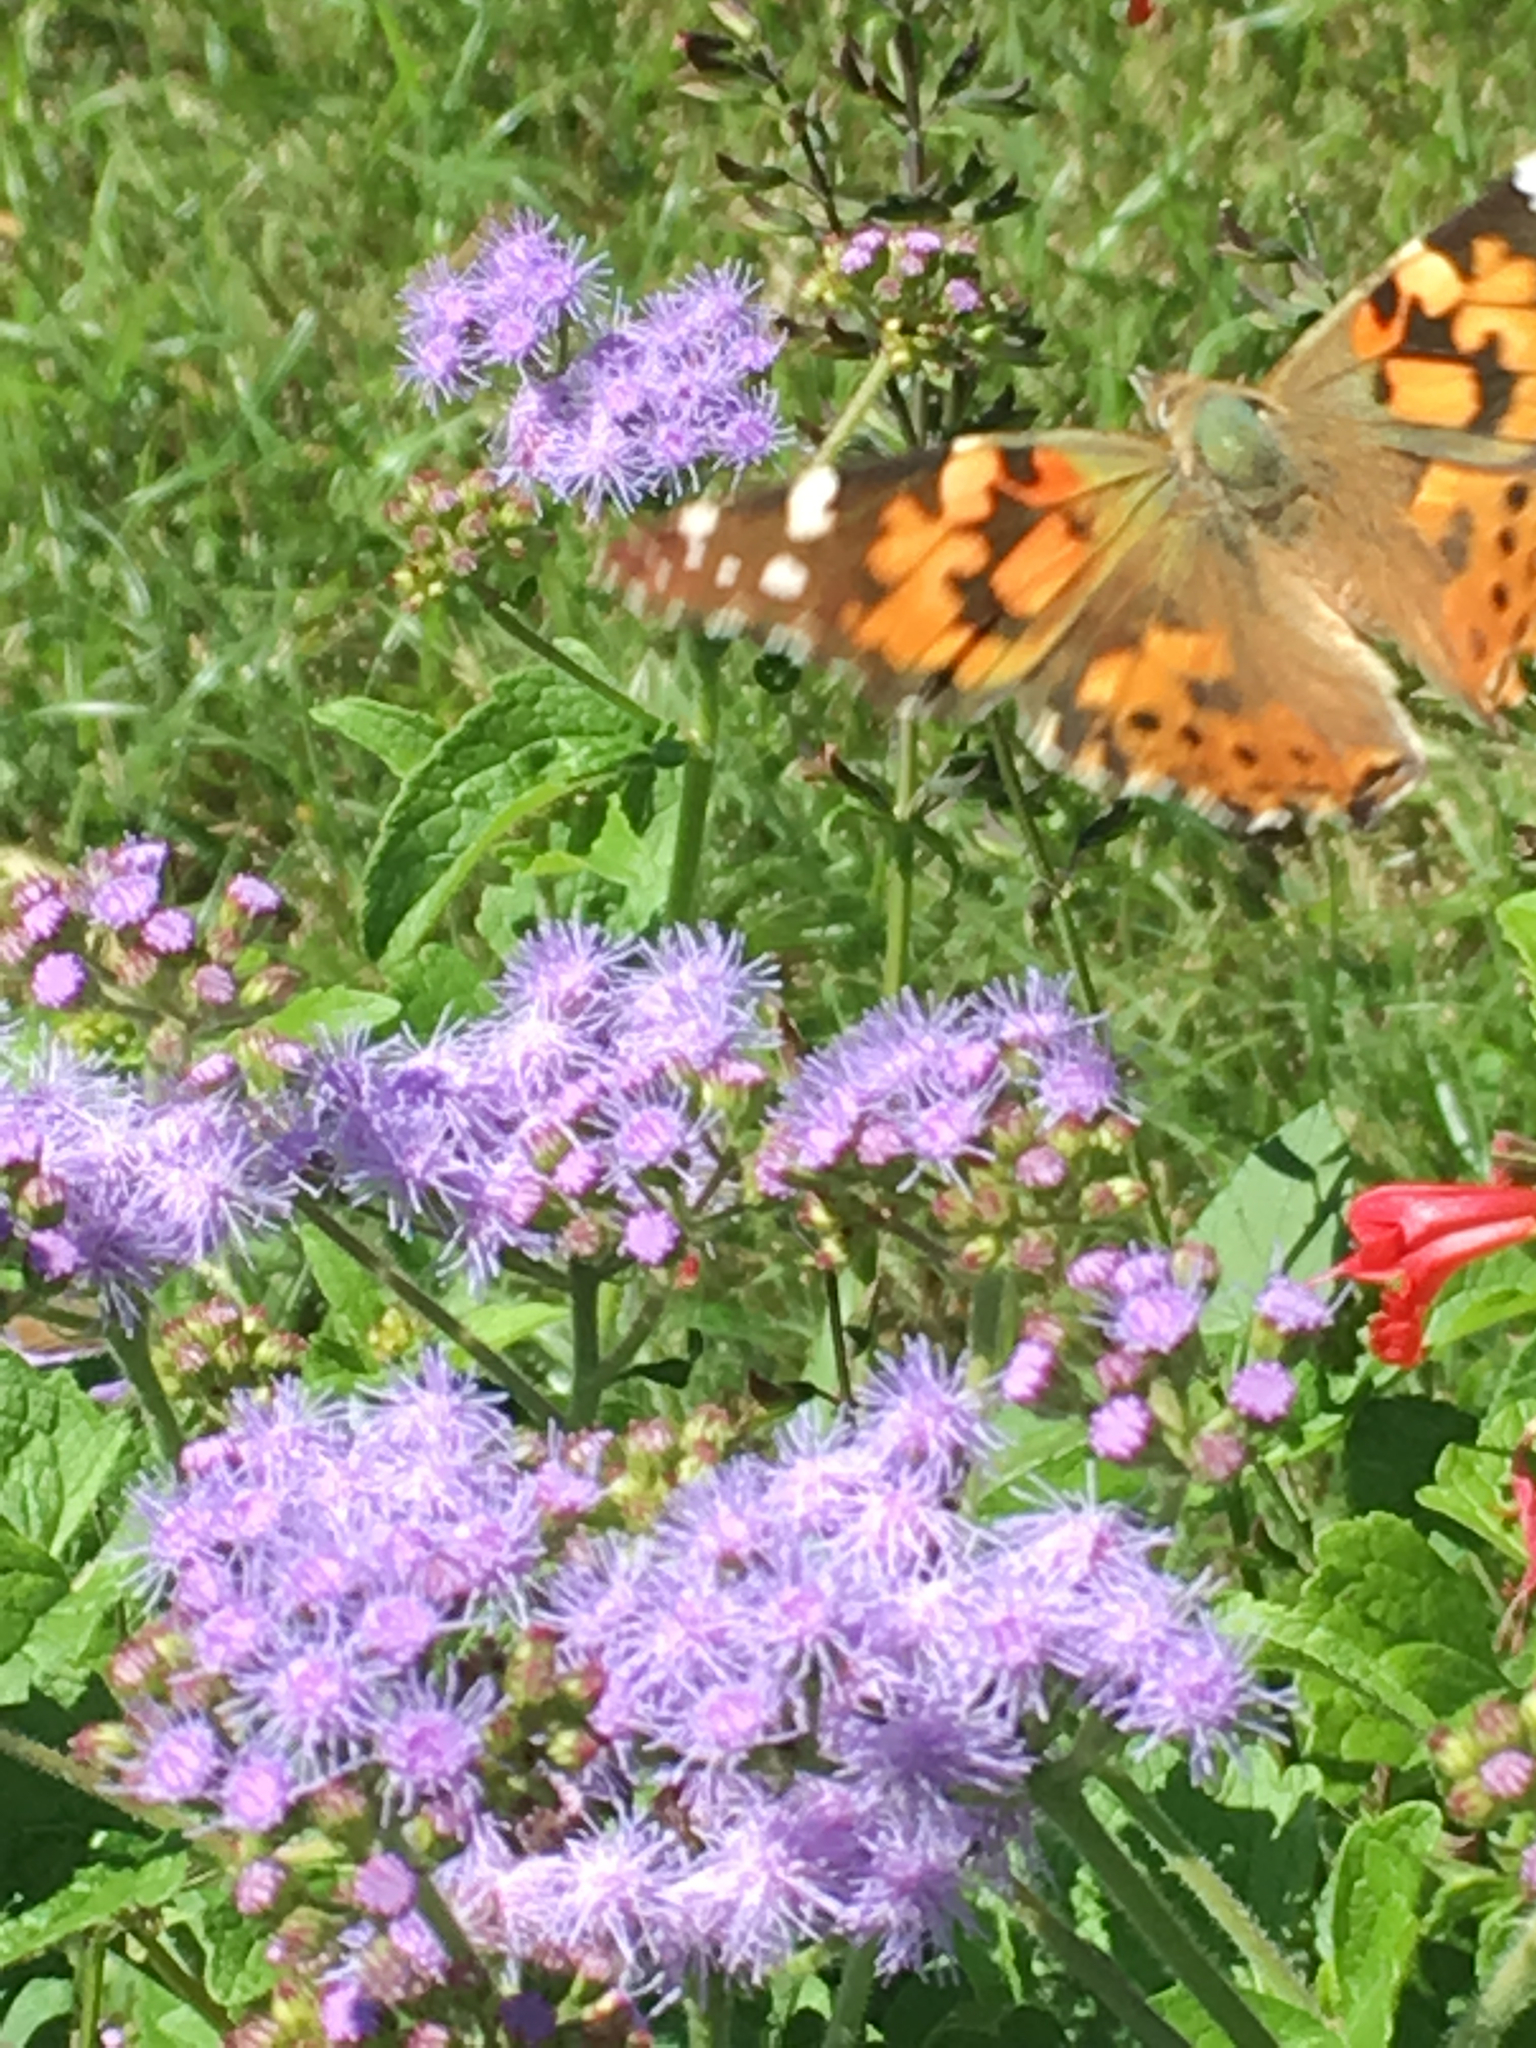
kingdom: Animalia
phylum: Arthropoda
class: Insecta
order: Lepidoptera
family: Nymphalidae
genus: Vanessa
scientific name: Vanessa cardui
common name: Painted lady
